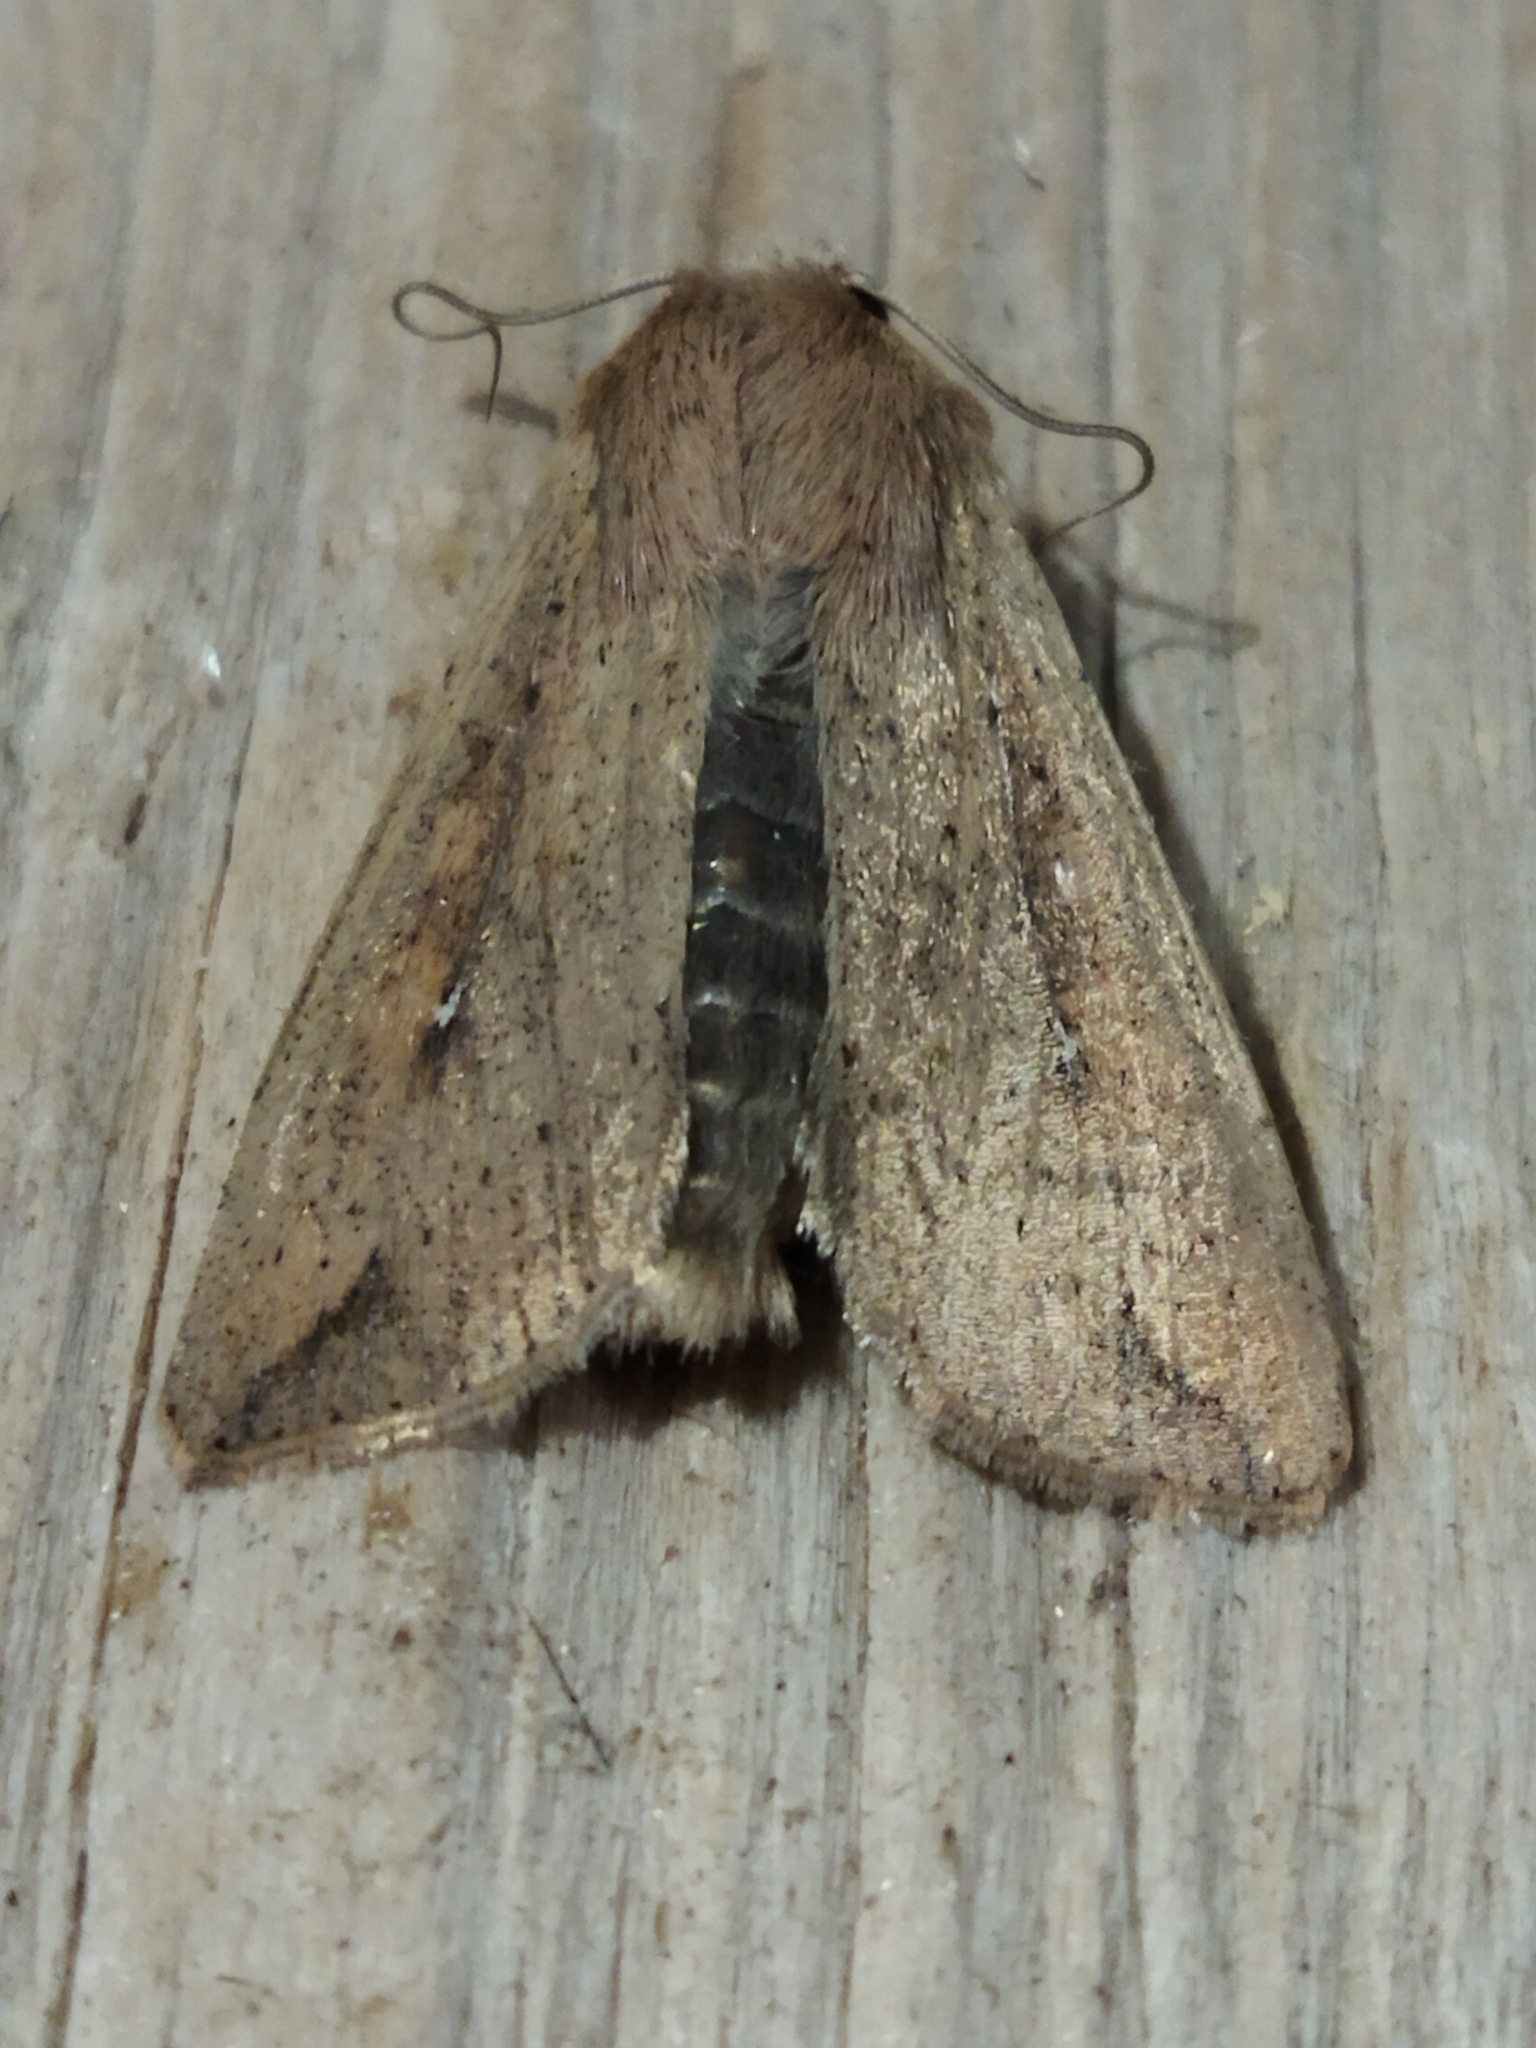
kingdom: Animalia
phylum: Arthropoda
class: Insecta
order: Lepidoptera
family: Noctuidae
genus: Mythimna
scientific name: Mythimna unipuncta
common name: White-speck
